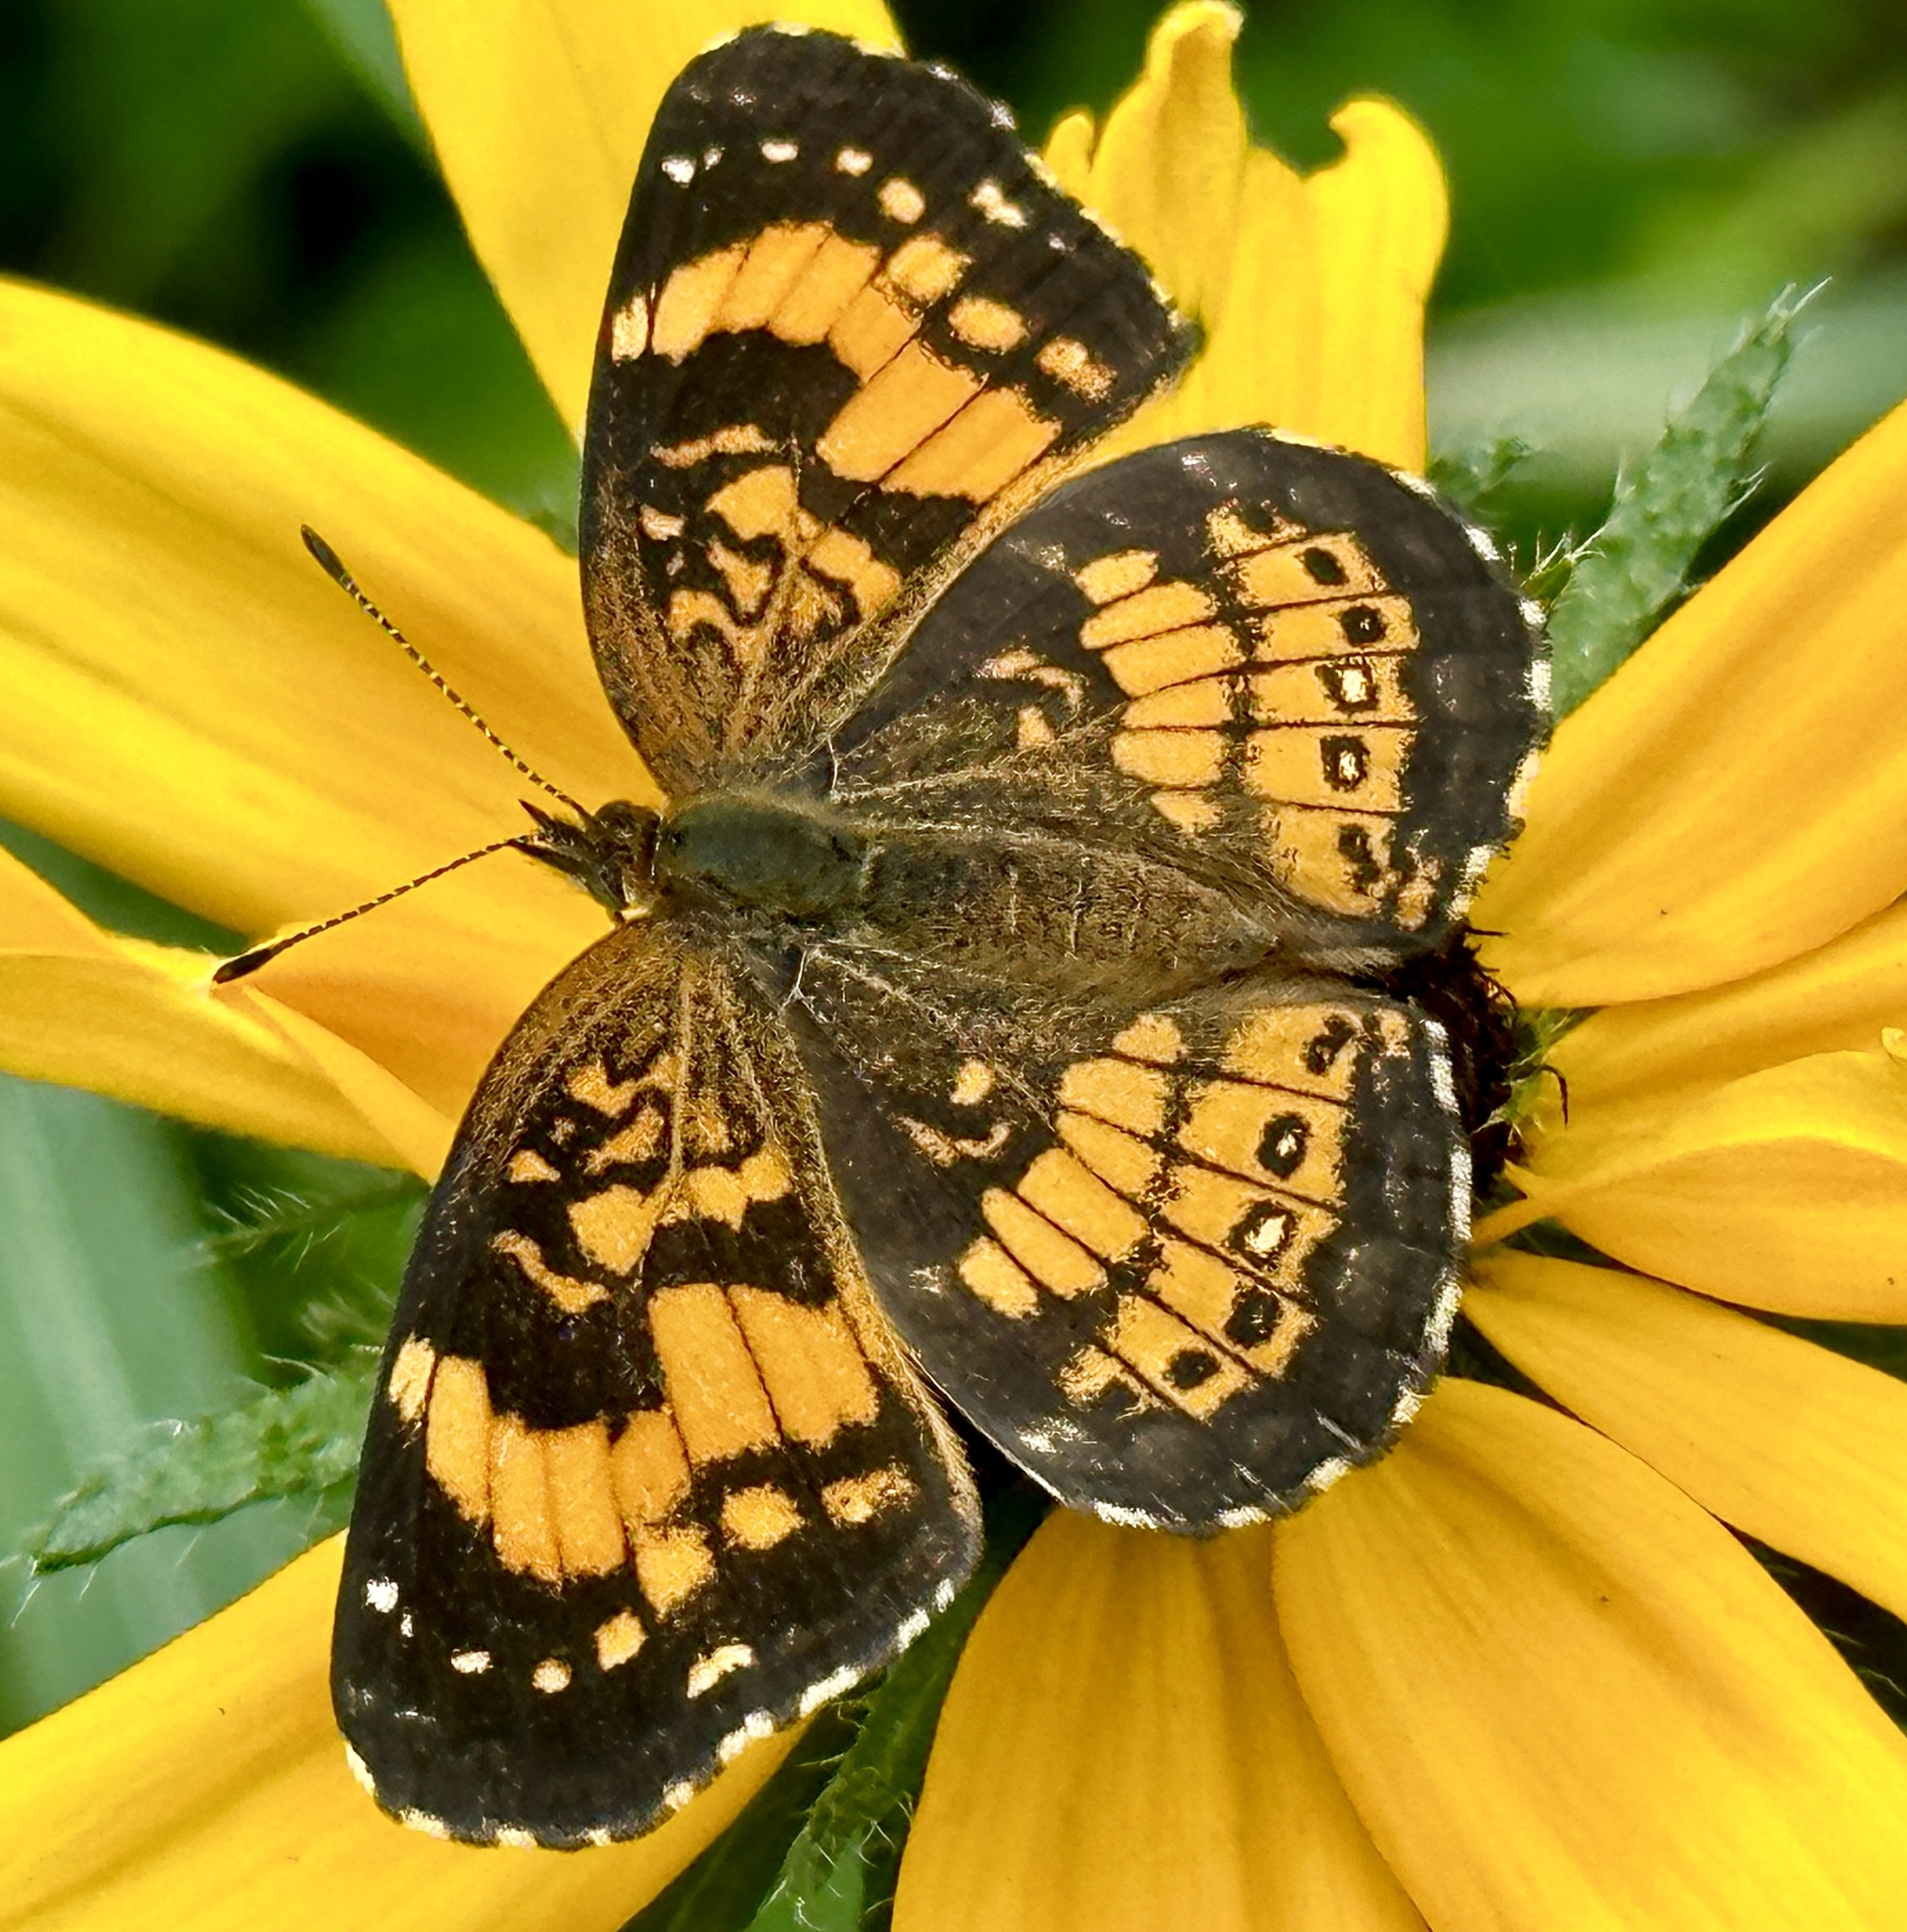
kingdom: Animalia
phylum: Arthropoda
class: Insecta
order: Lepidoptera
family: Nymphalidae
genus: Chlosyne
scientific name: Chlosyne nycteis
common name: Silvery checkerspot
